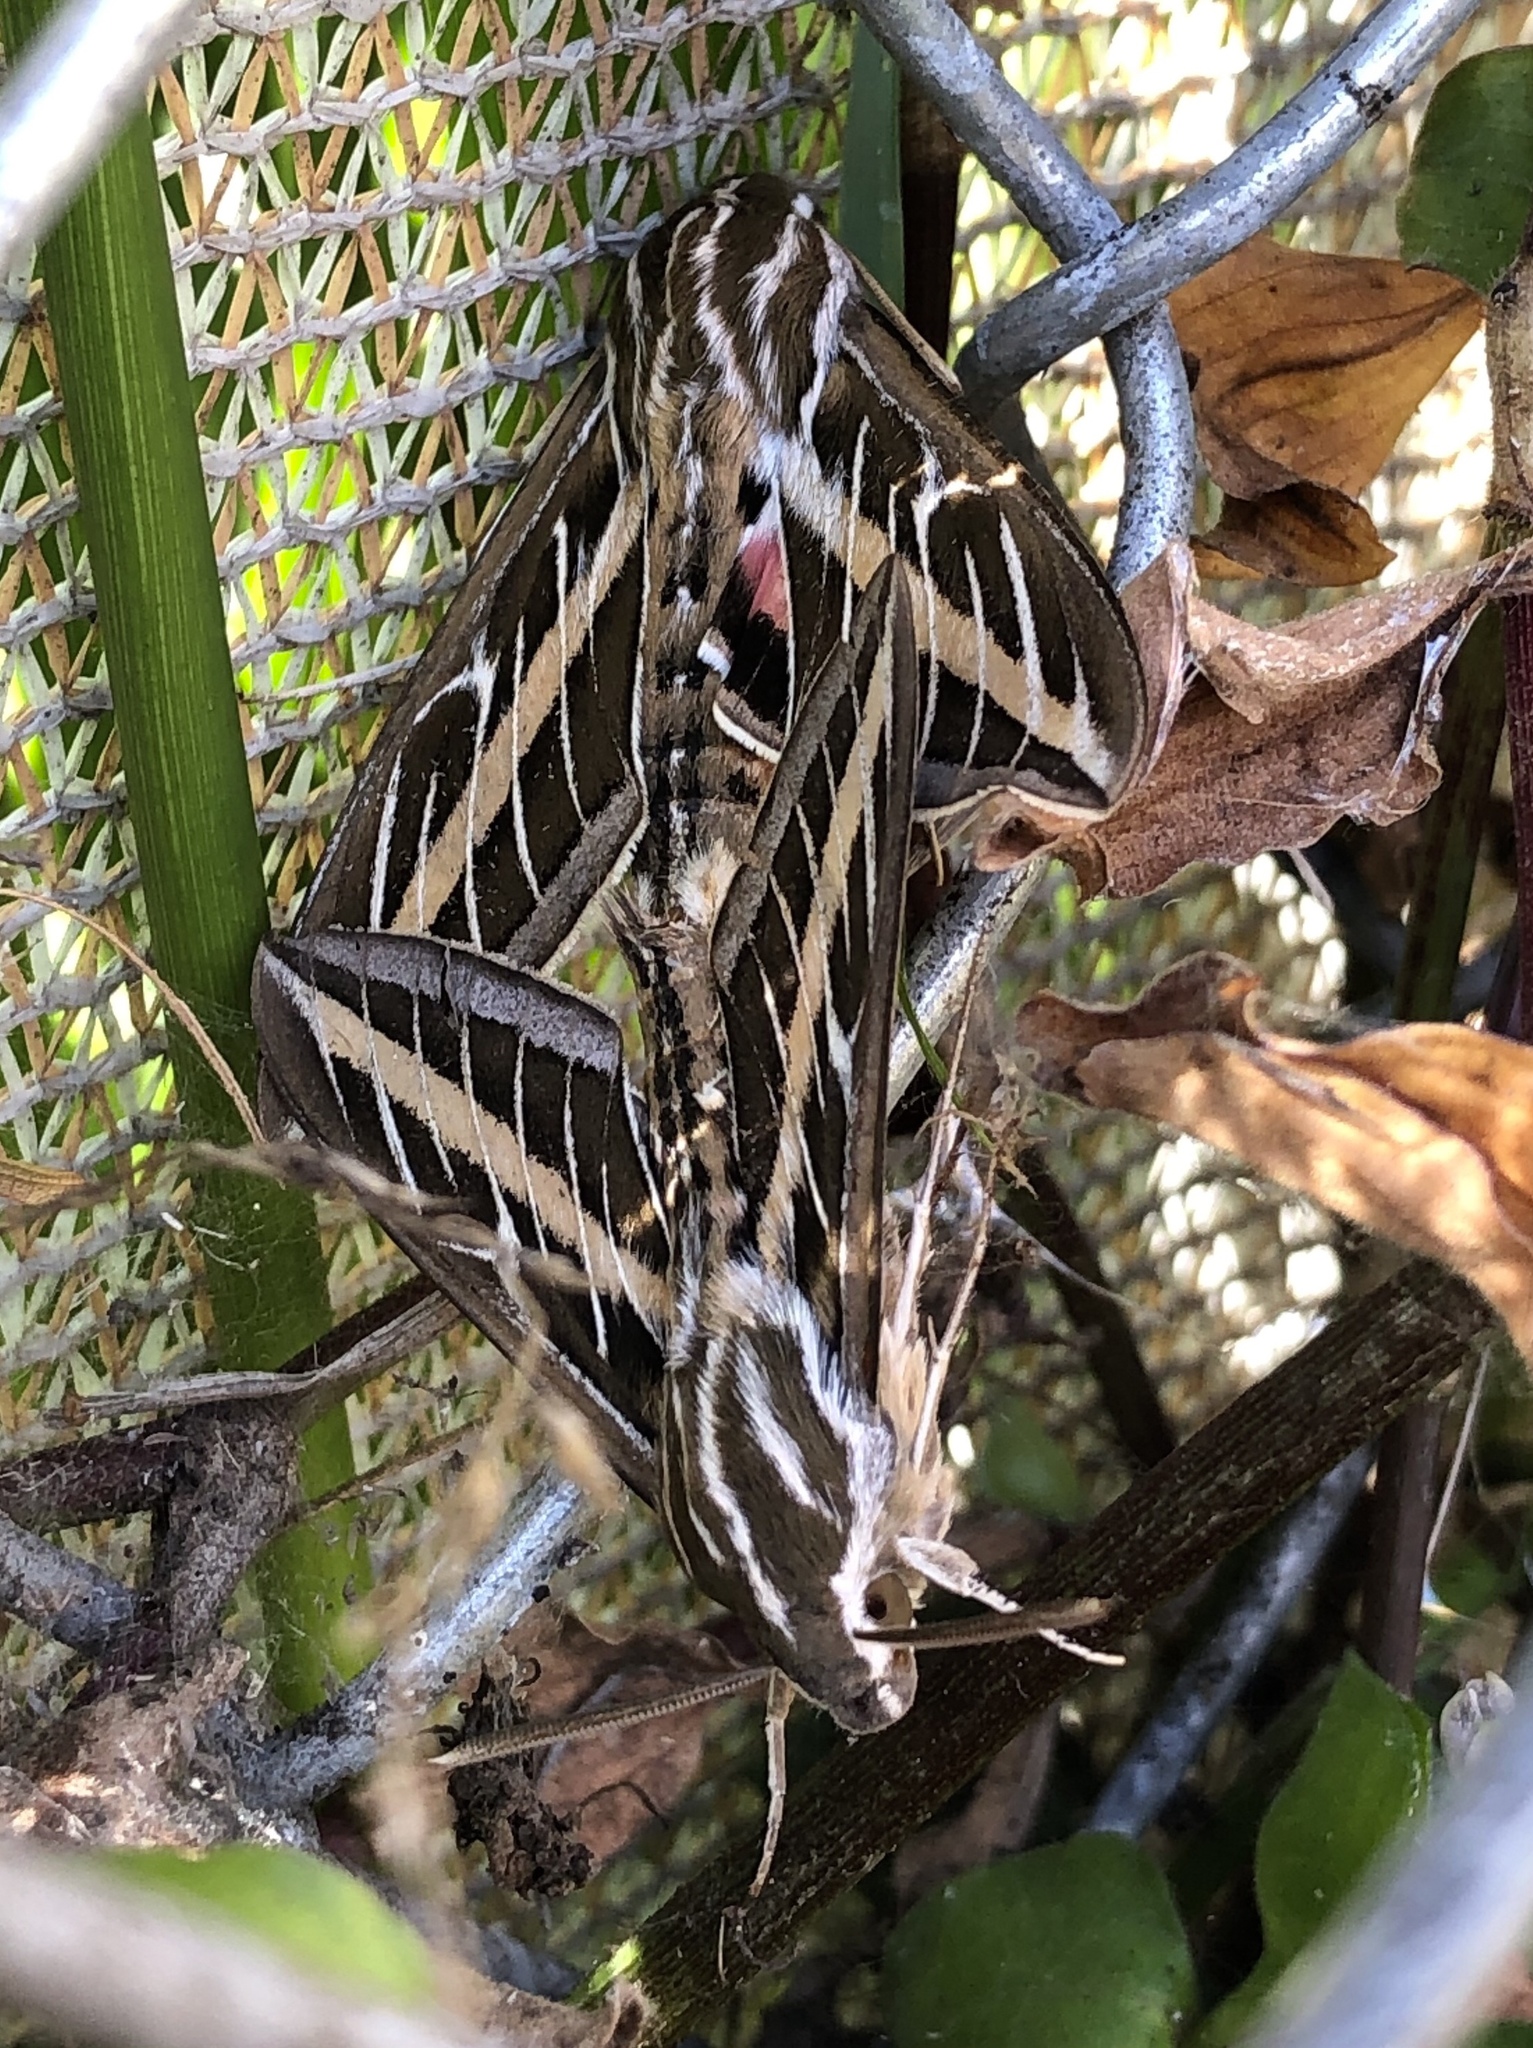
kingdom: Animalia
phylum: Arthropoda
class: Insecta
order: Lepidoptera
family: Sphingidae
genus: Hyles
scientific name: Hyles lineata
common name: White-lined sphinx
